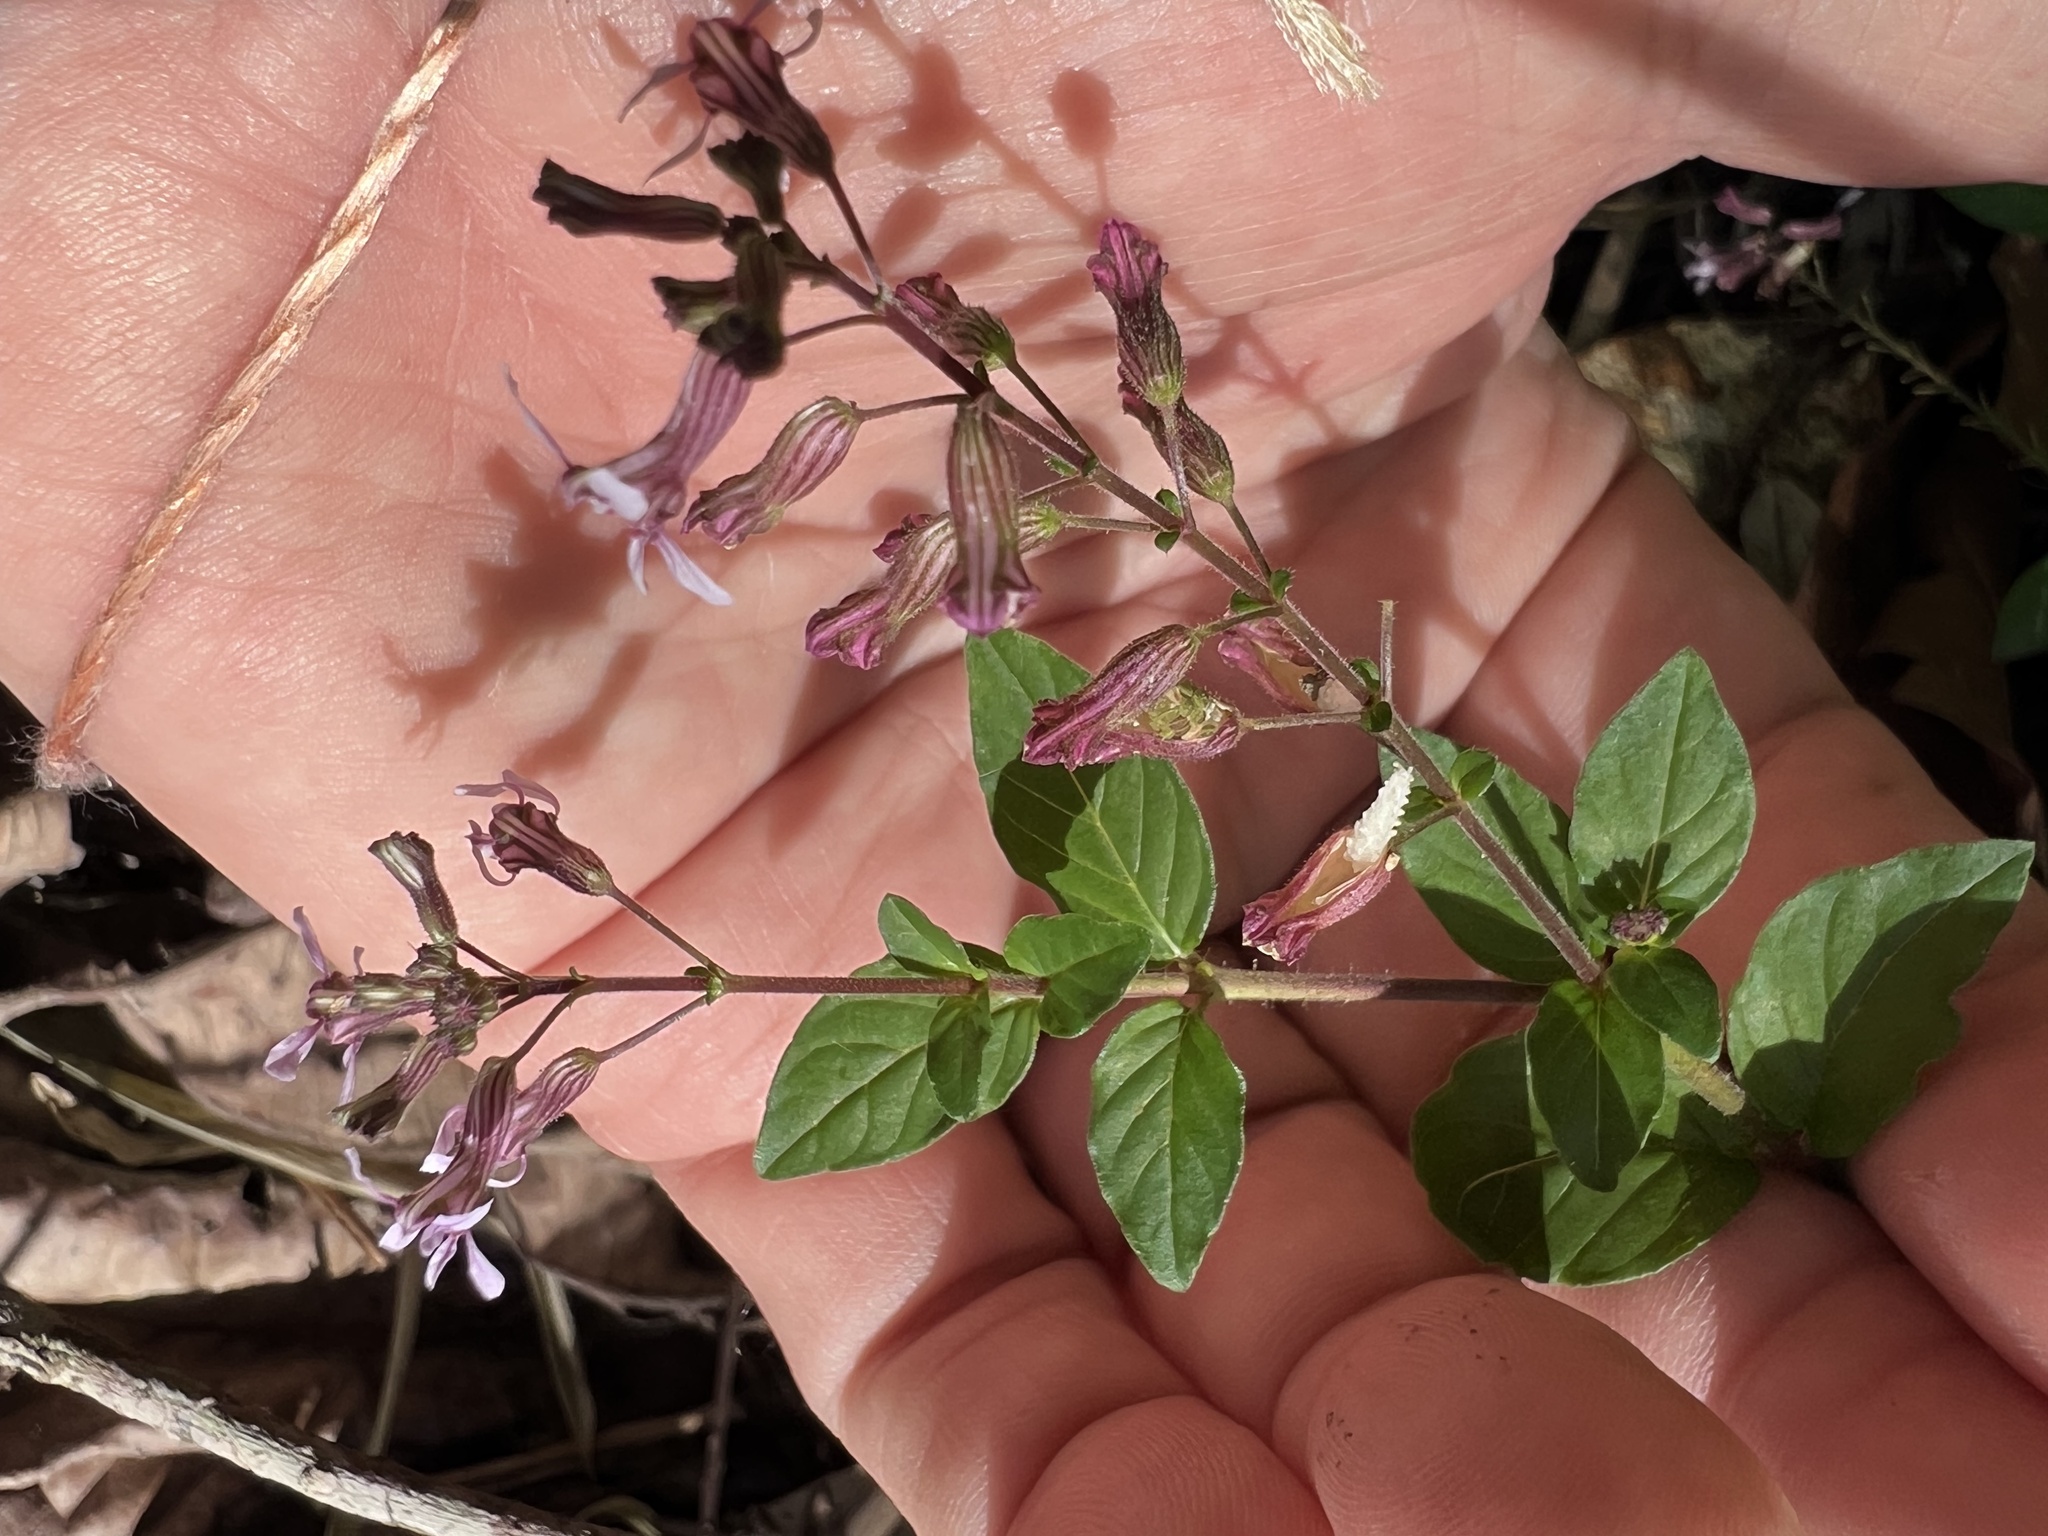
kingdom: Plantae
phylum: Tracheophyta
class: Magnoliopsida
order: Myrtales
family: Lythraceae
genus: Cuphea
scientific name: Cuphea racemosa
